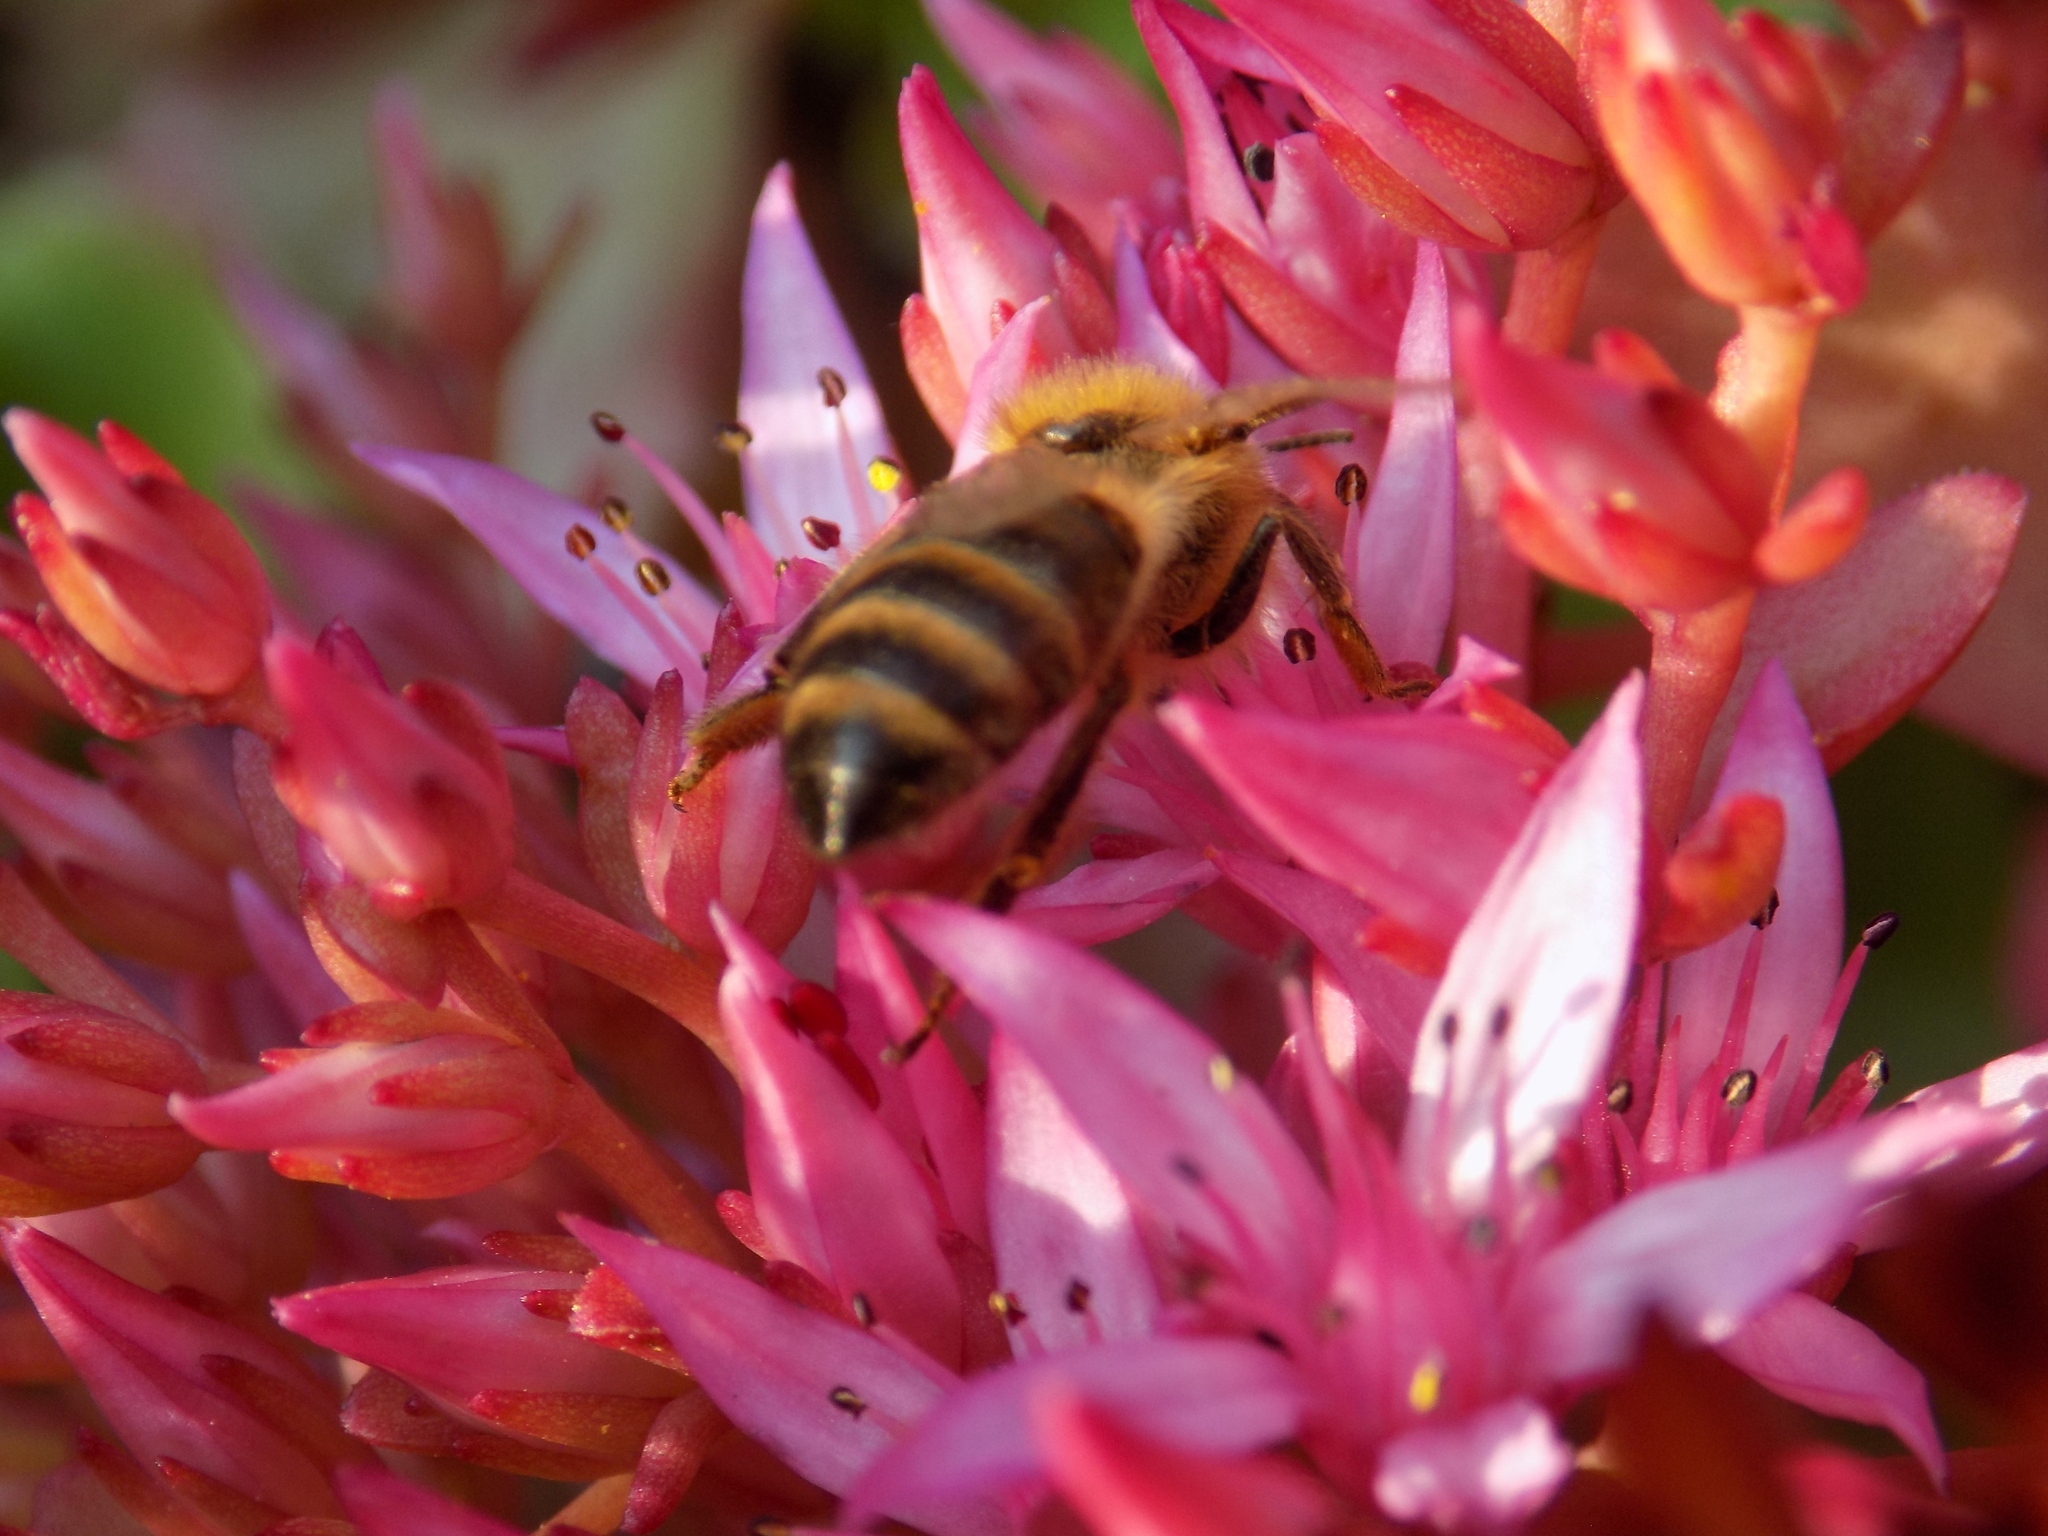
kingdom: Animalia
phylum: Arthropoda
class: Insecta
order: Hymenoptera
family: Apidae
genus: Apis
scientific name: Apis mellifera
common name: Honey bee
